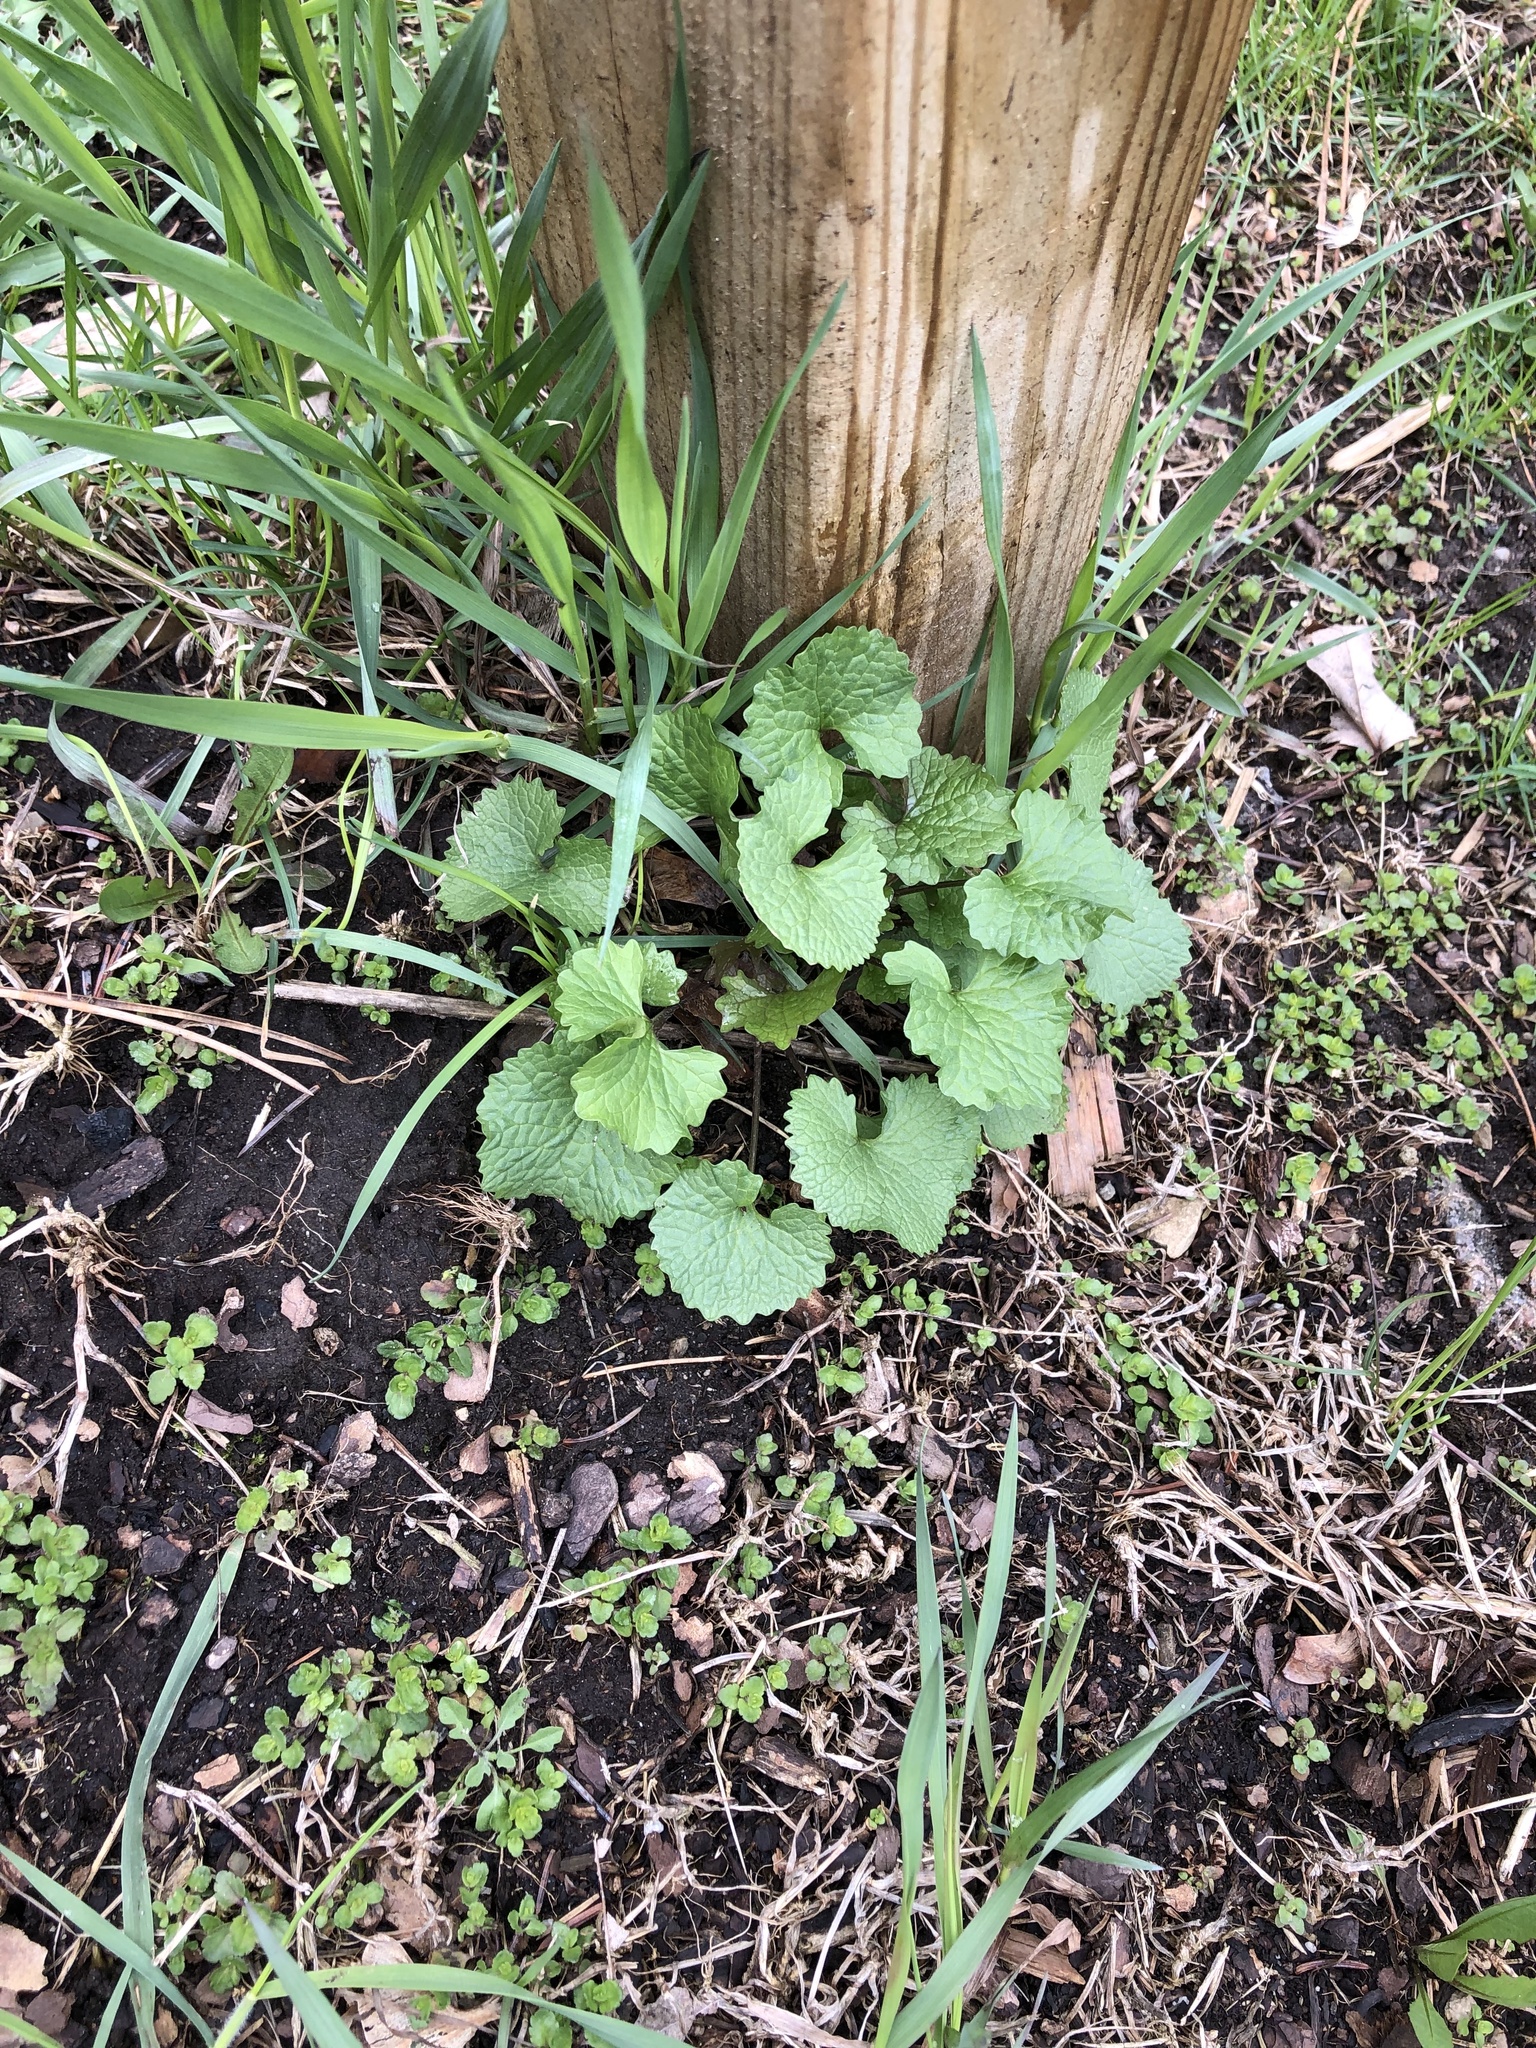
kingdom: Plantae
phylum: Tracheophyta
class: Magnoliopsida
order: Brassicales
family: Brassicaceae
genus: Alliaria
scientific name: Alliaria petiolata
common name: Garlic mustard
